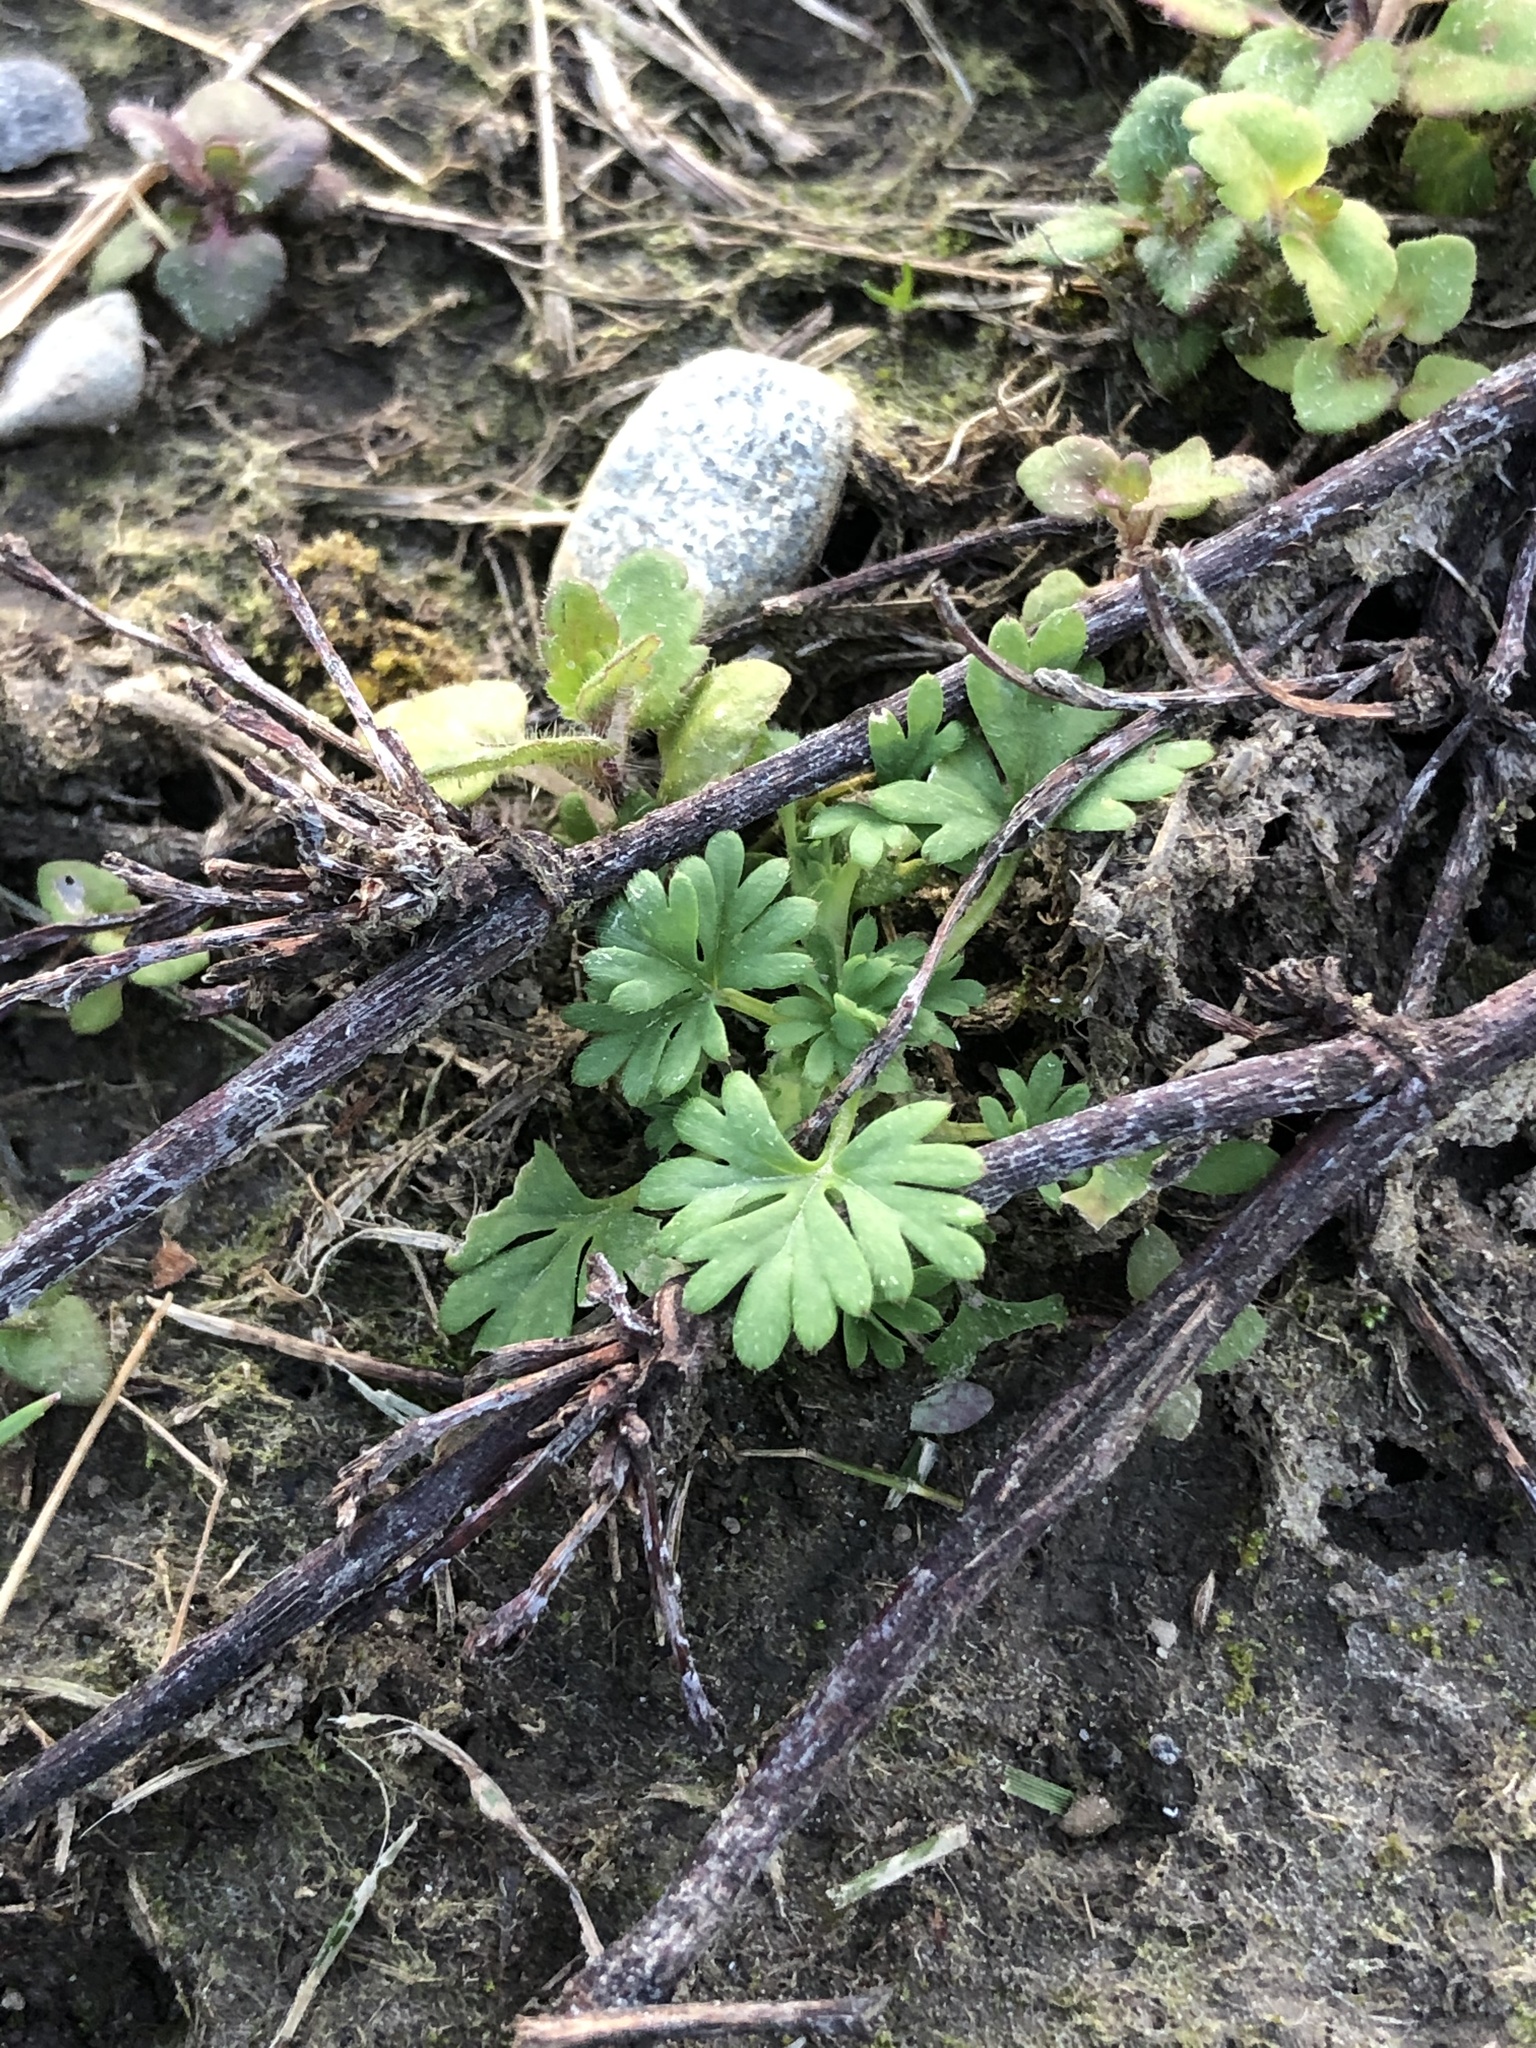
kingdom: Plantae
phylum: Tracheophyta
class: Magnoliopsida
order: Rosales
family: Rosaceae
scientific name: Rosaceae
